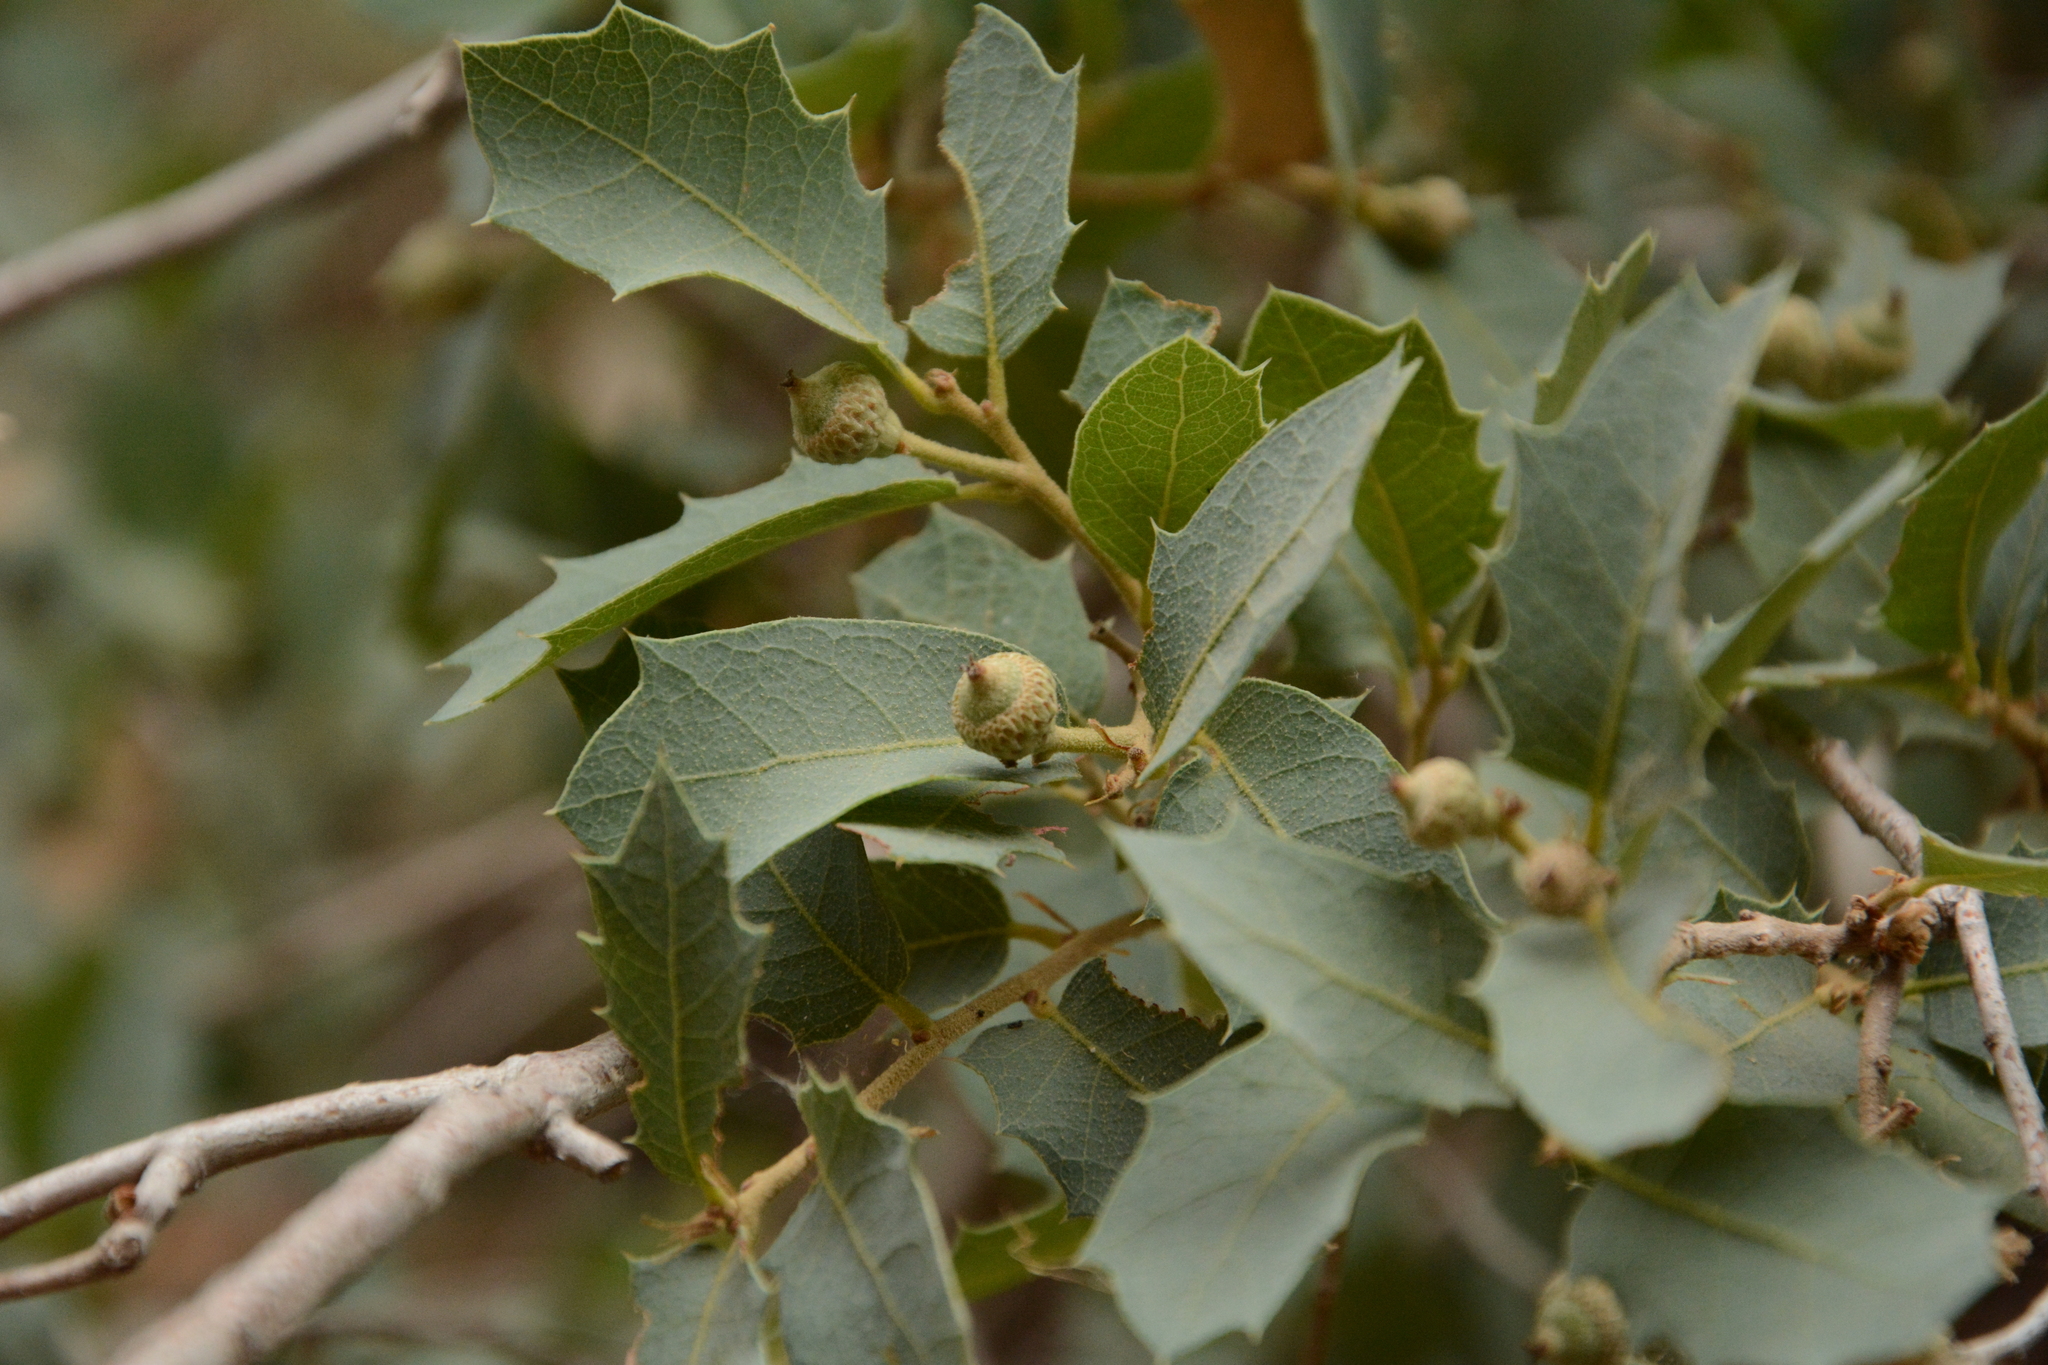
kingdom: Plantae
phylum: Tracheophyta
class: Magnoliopsida
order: Fagales
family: Fagaceae
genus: Quercus
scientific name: Quercus turbinella
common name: Sonoran scrub oak
